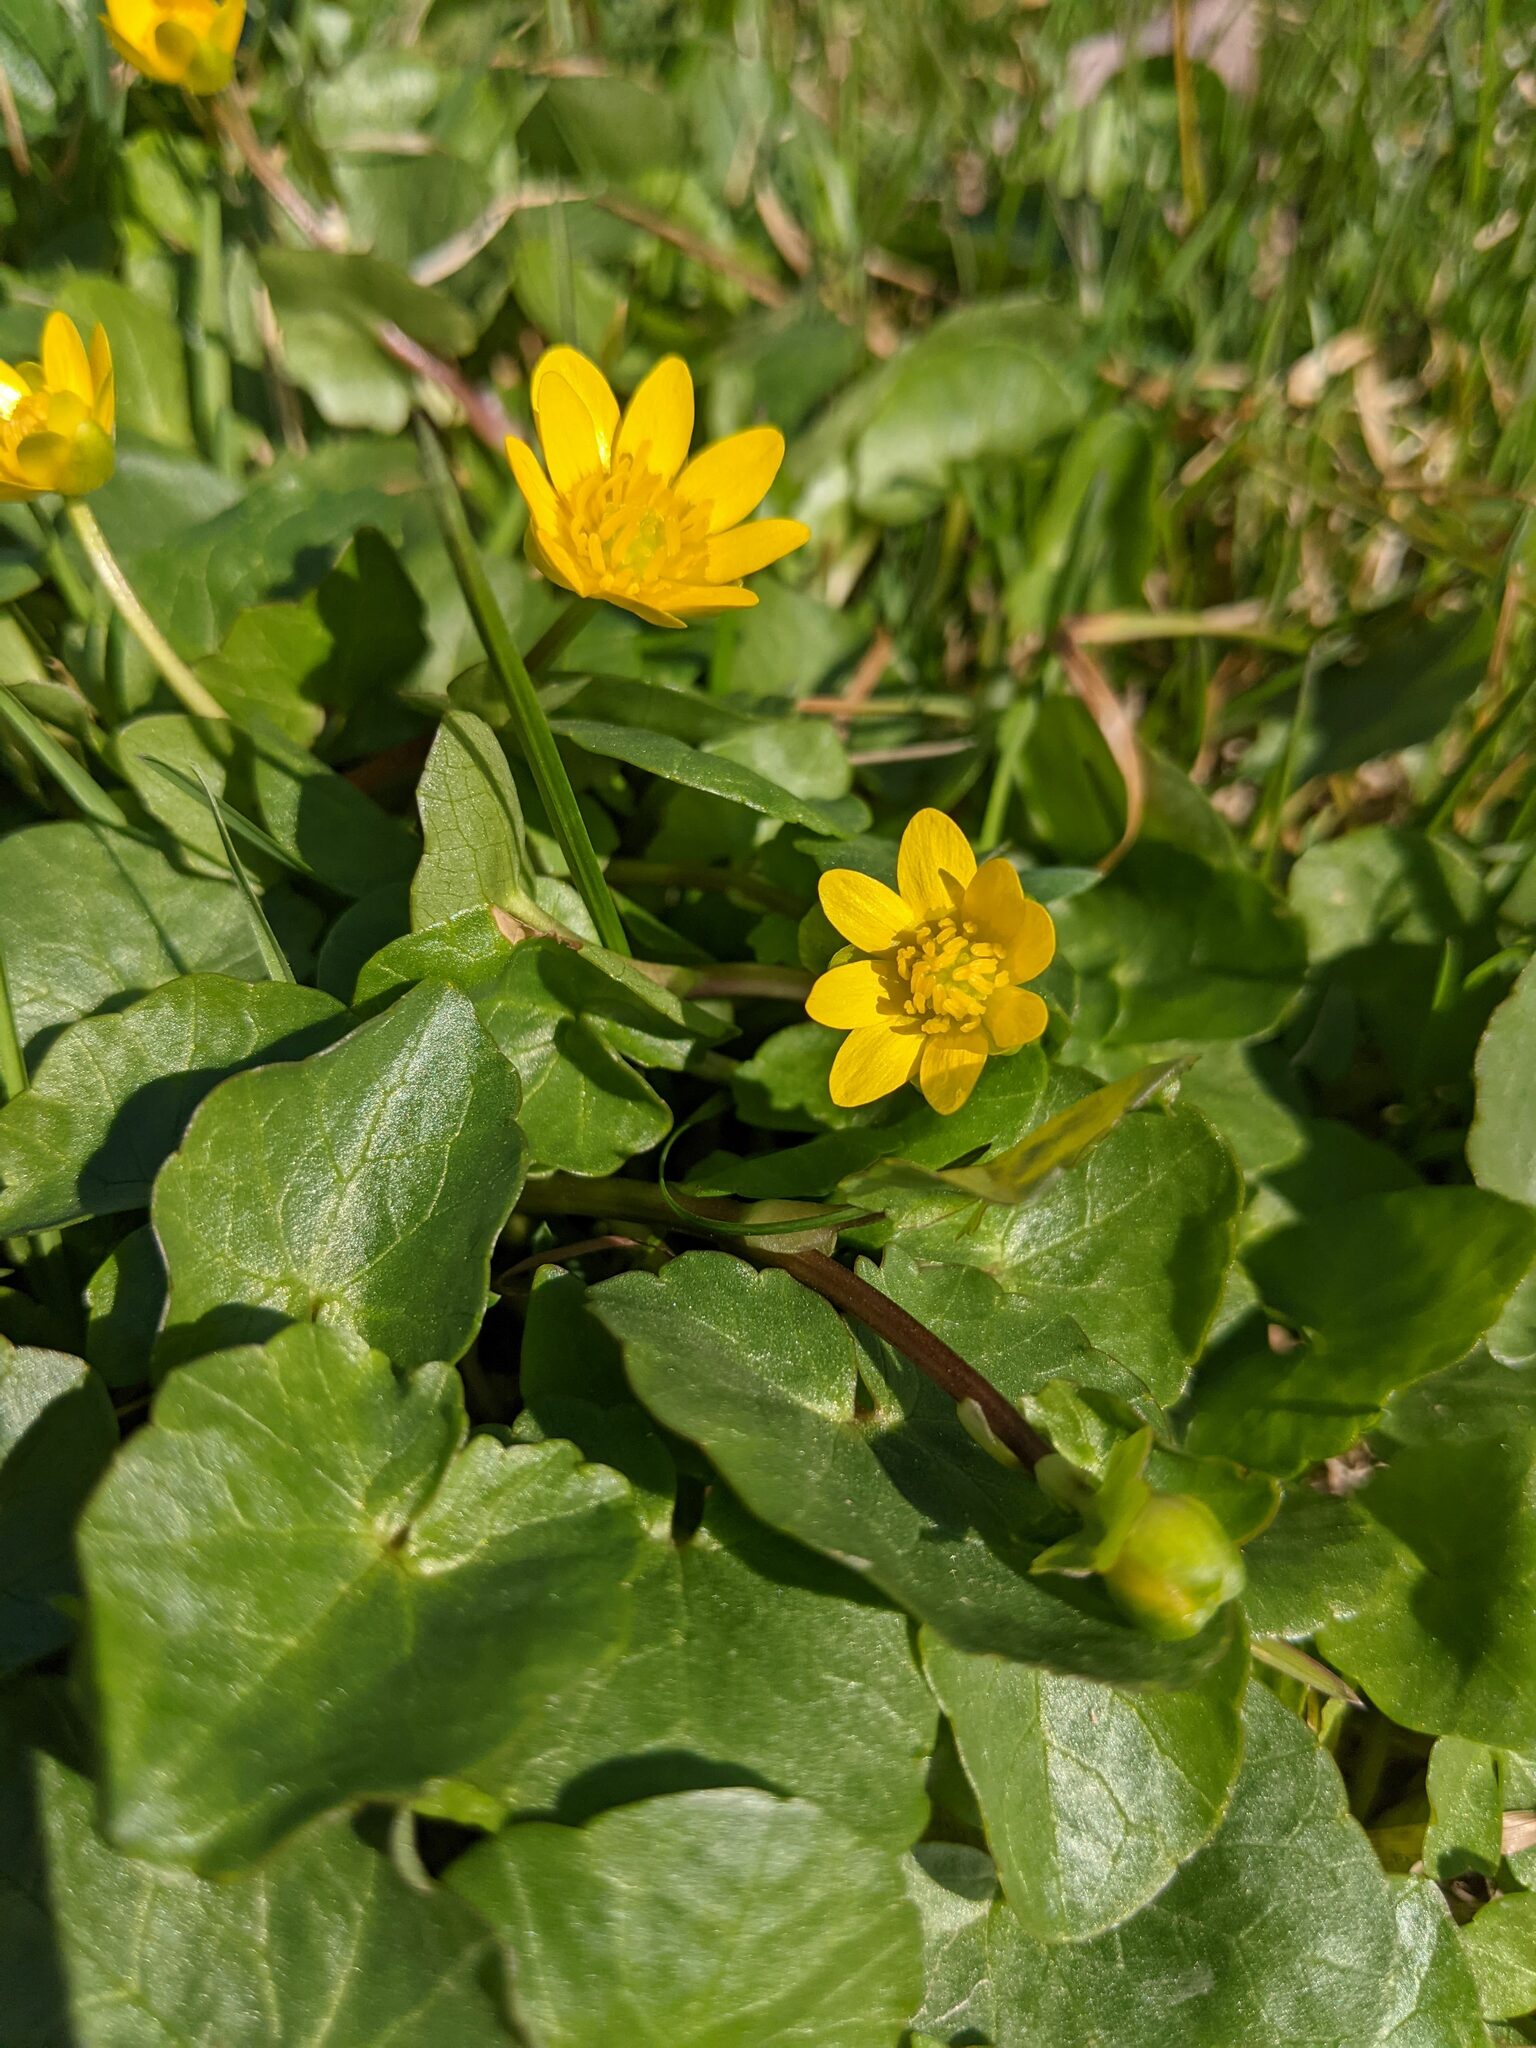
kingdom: Plantae
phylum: Tracheophyta
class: Magnoliopsida
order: Ranunculales
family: Ranunculaceae
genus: Ficaria
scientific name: Ficaria verna
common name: Lesser celandine
